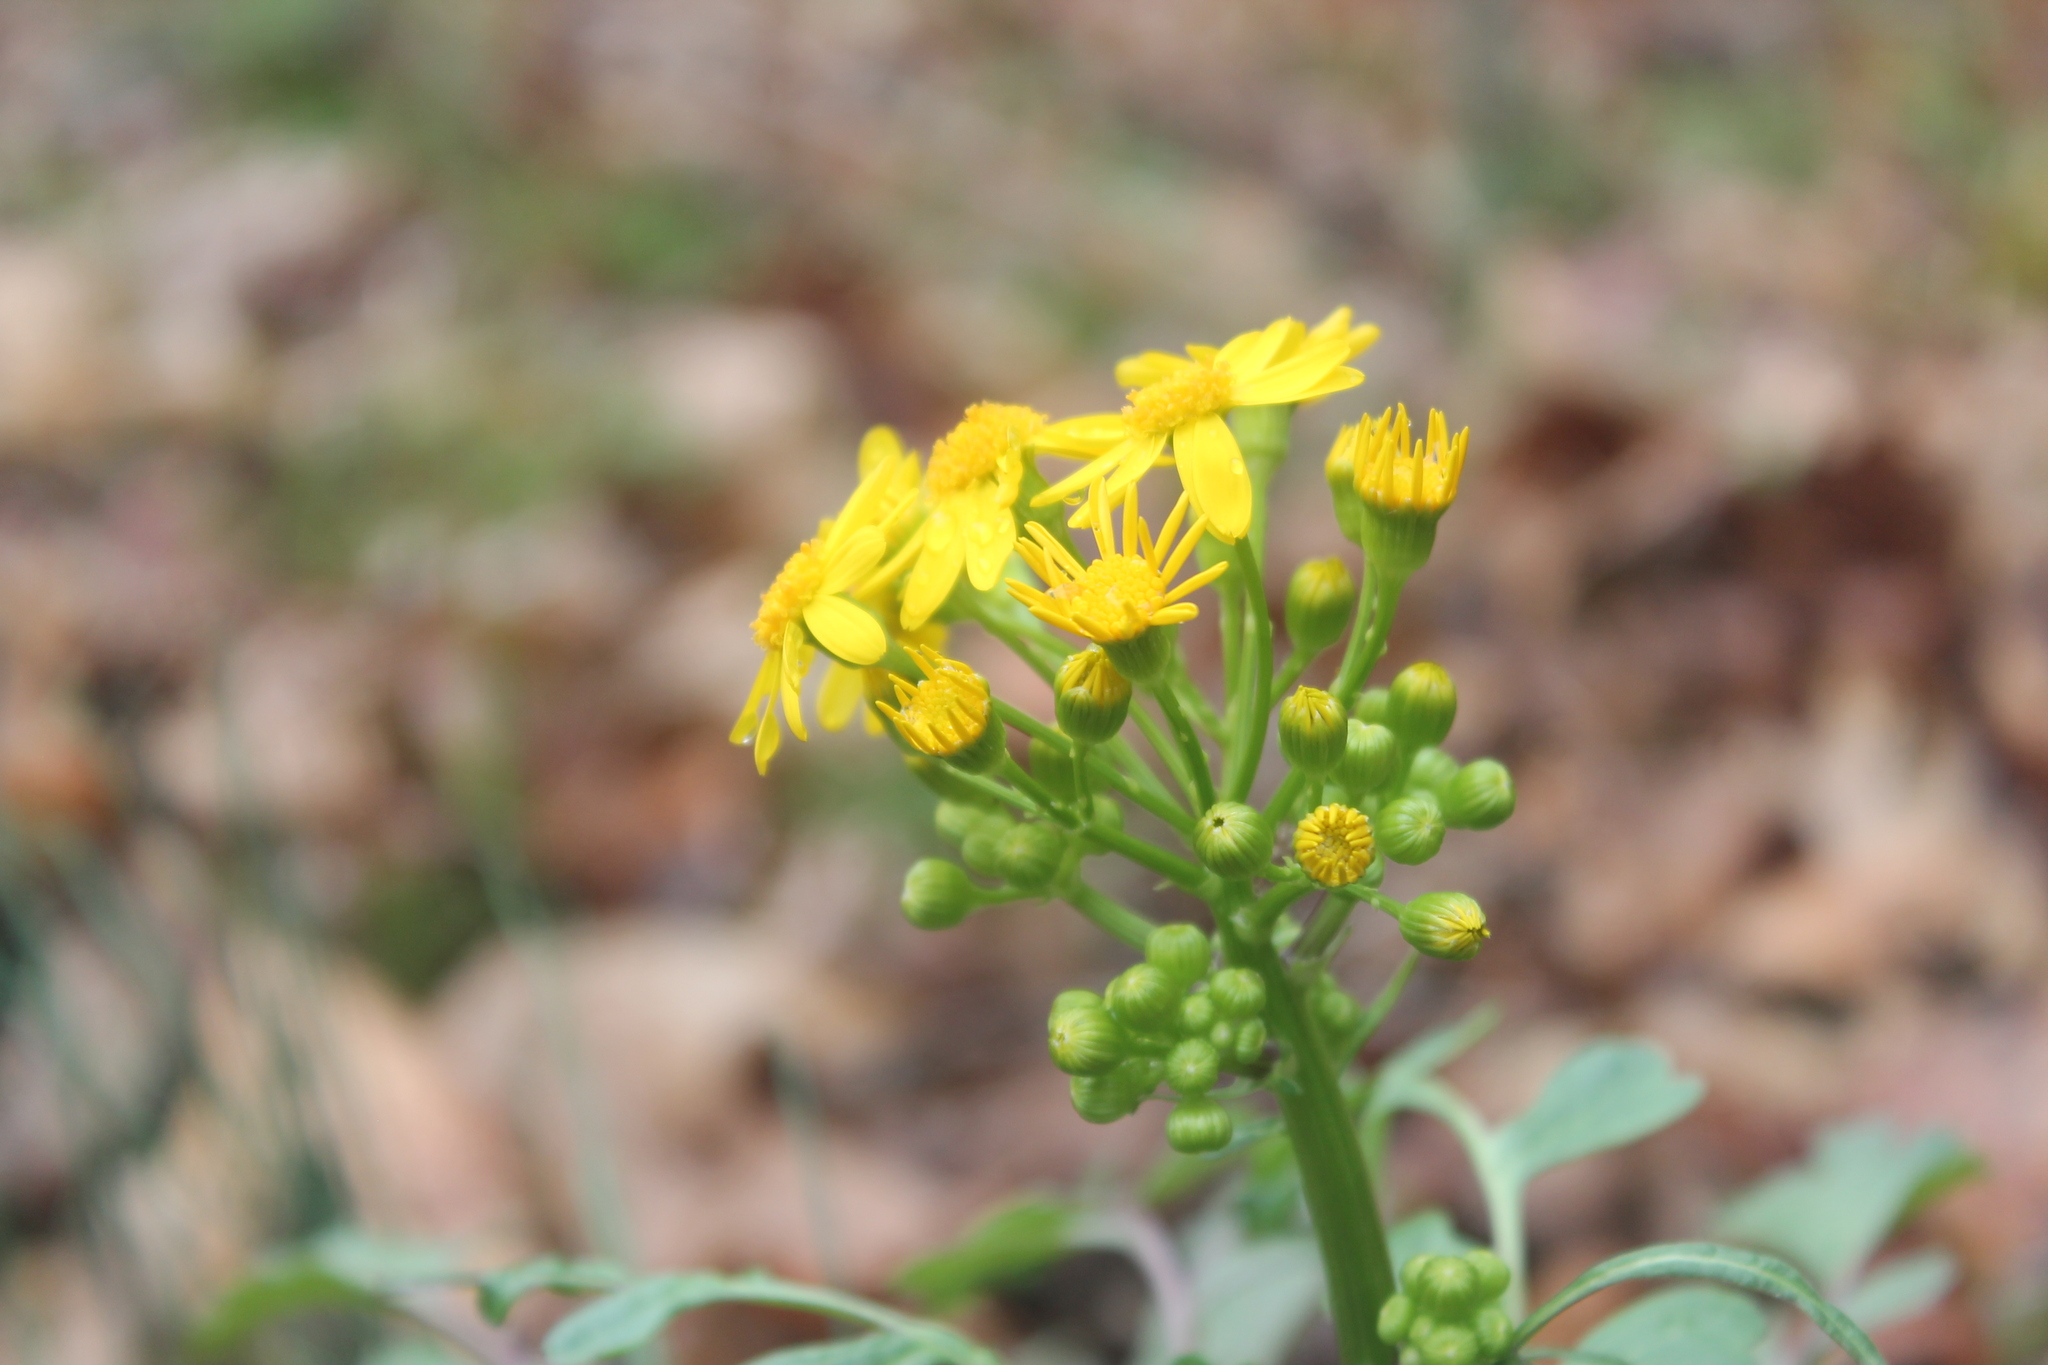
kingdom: Plantae
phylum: Tracheophyta
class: Magnoliopsida
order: Asterales
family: Asteraceae
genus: Packera
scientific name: Packera glabella
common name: Butterweed
